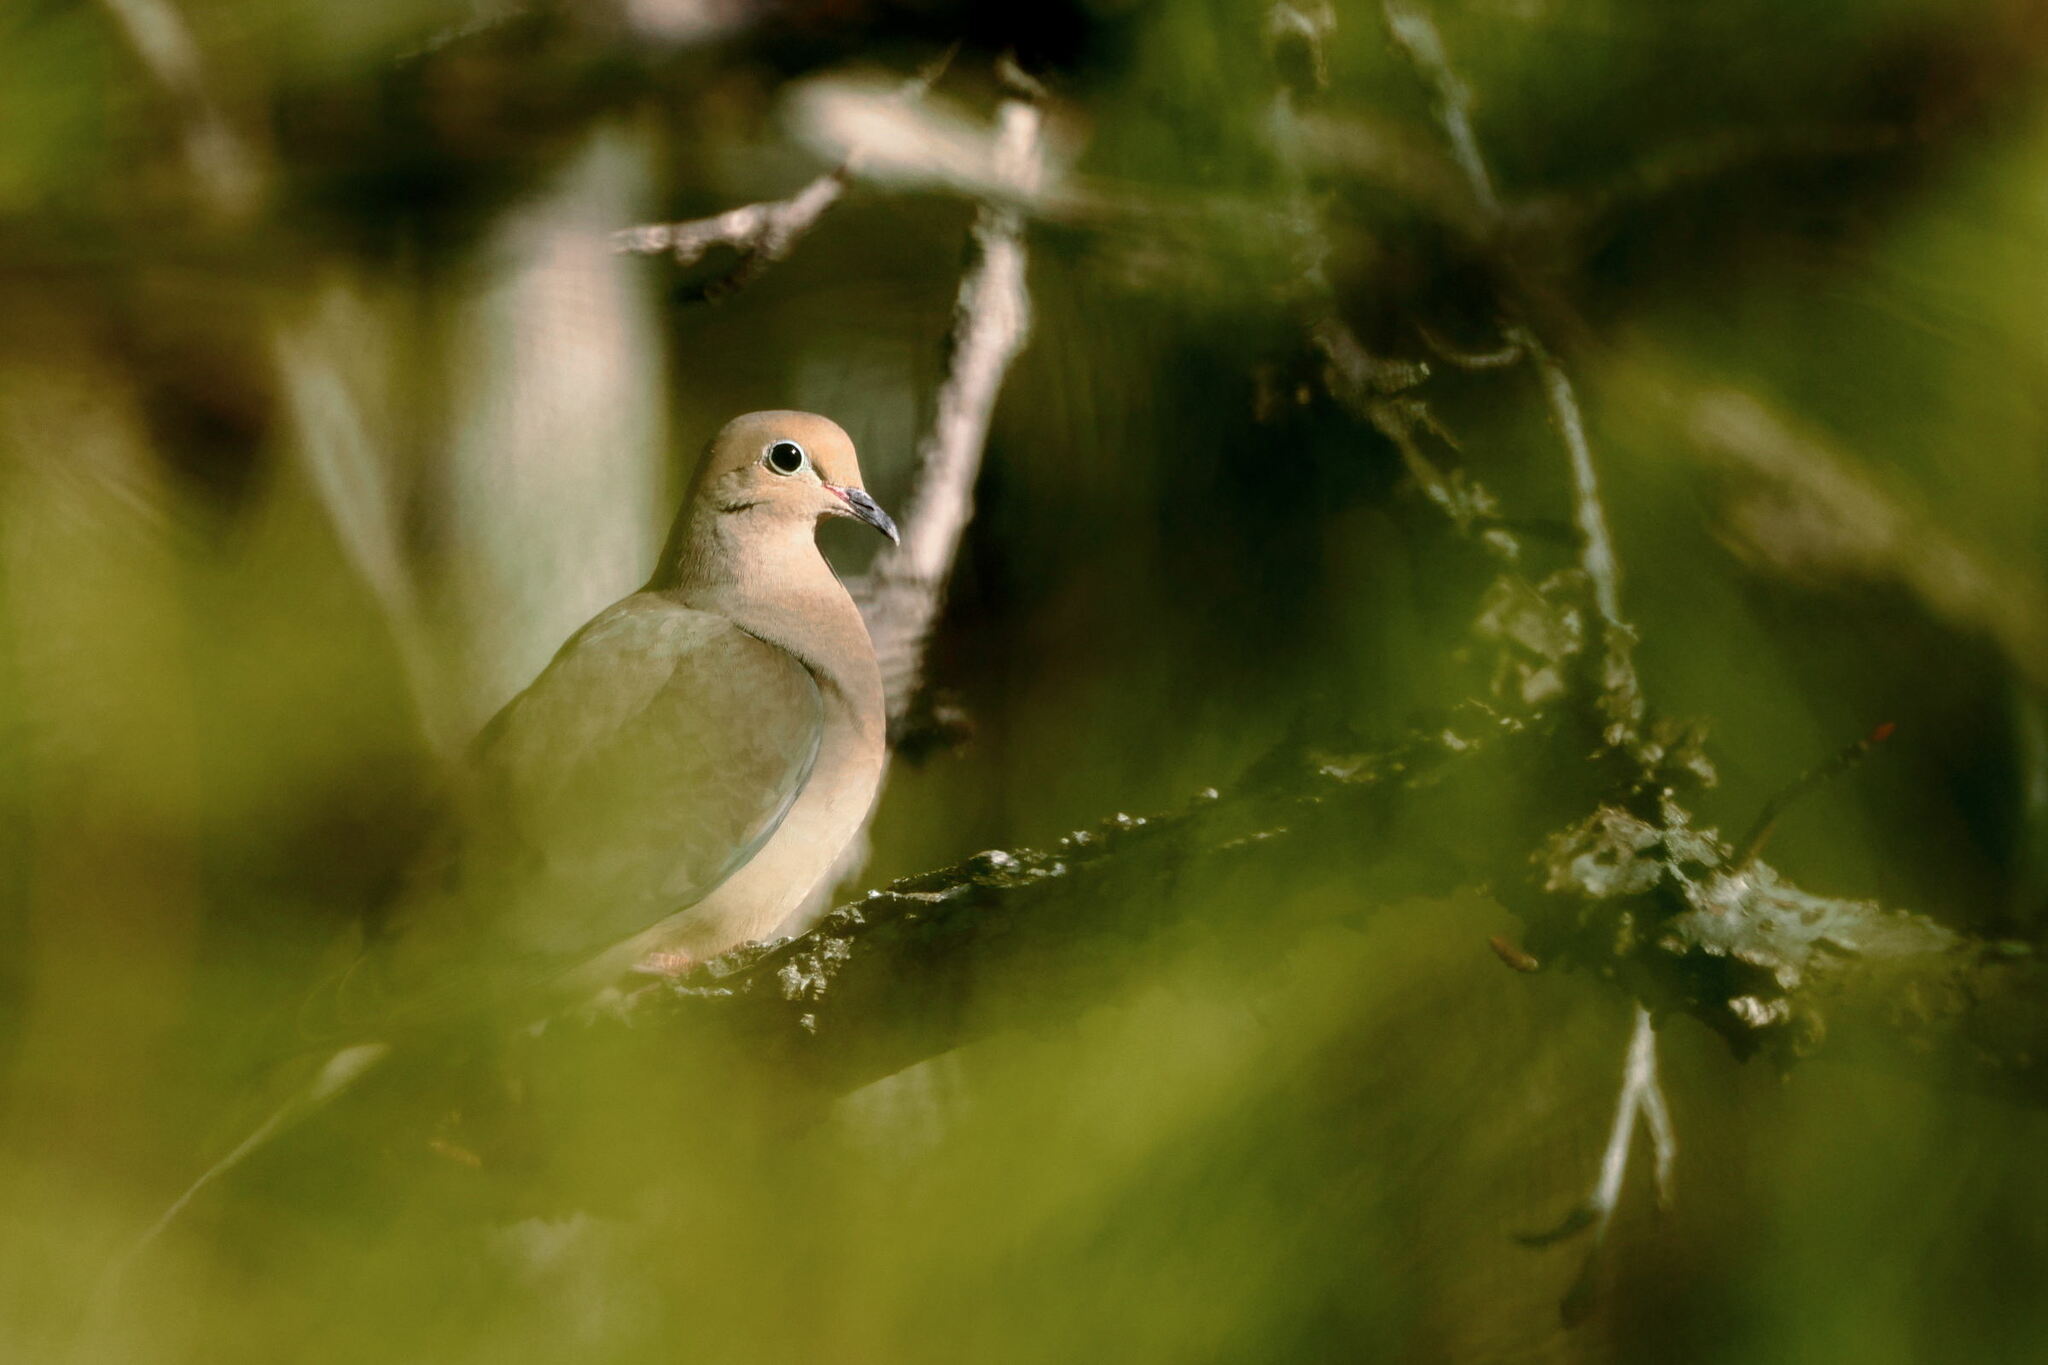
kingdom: Animalia
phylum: Chordata
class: Aves
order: Columbiformes
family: Columbidae
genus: Zenaida
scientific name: Zenaida macroura
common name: Mourning dove
